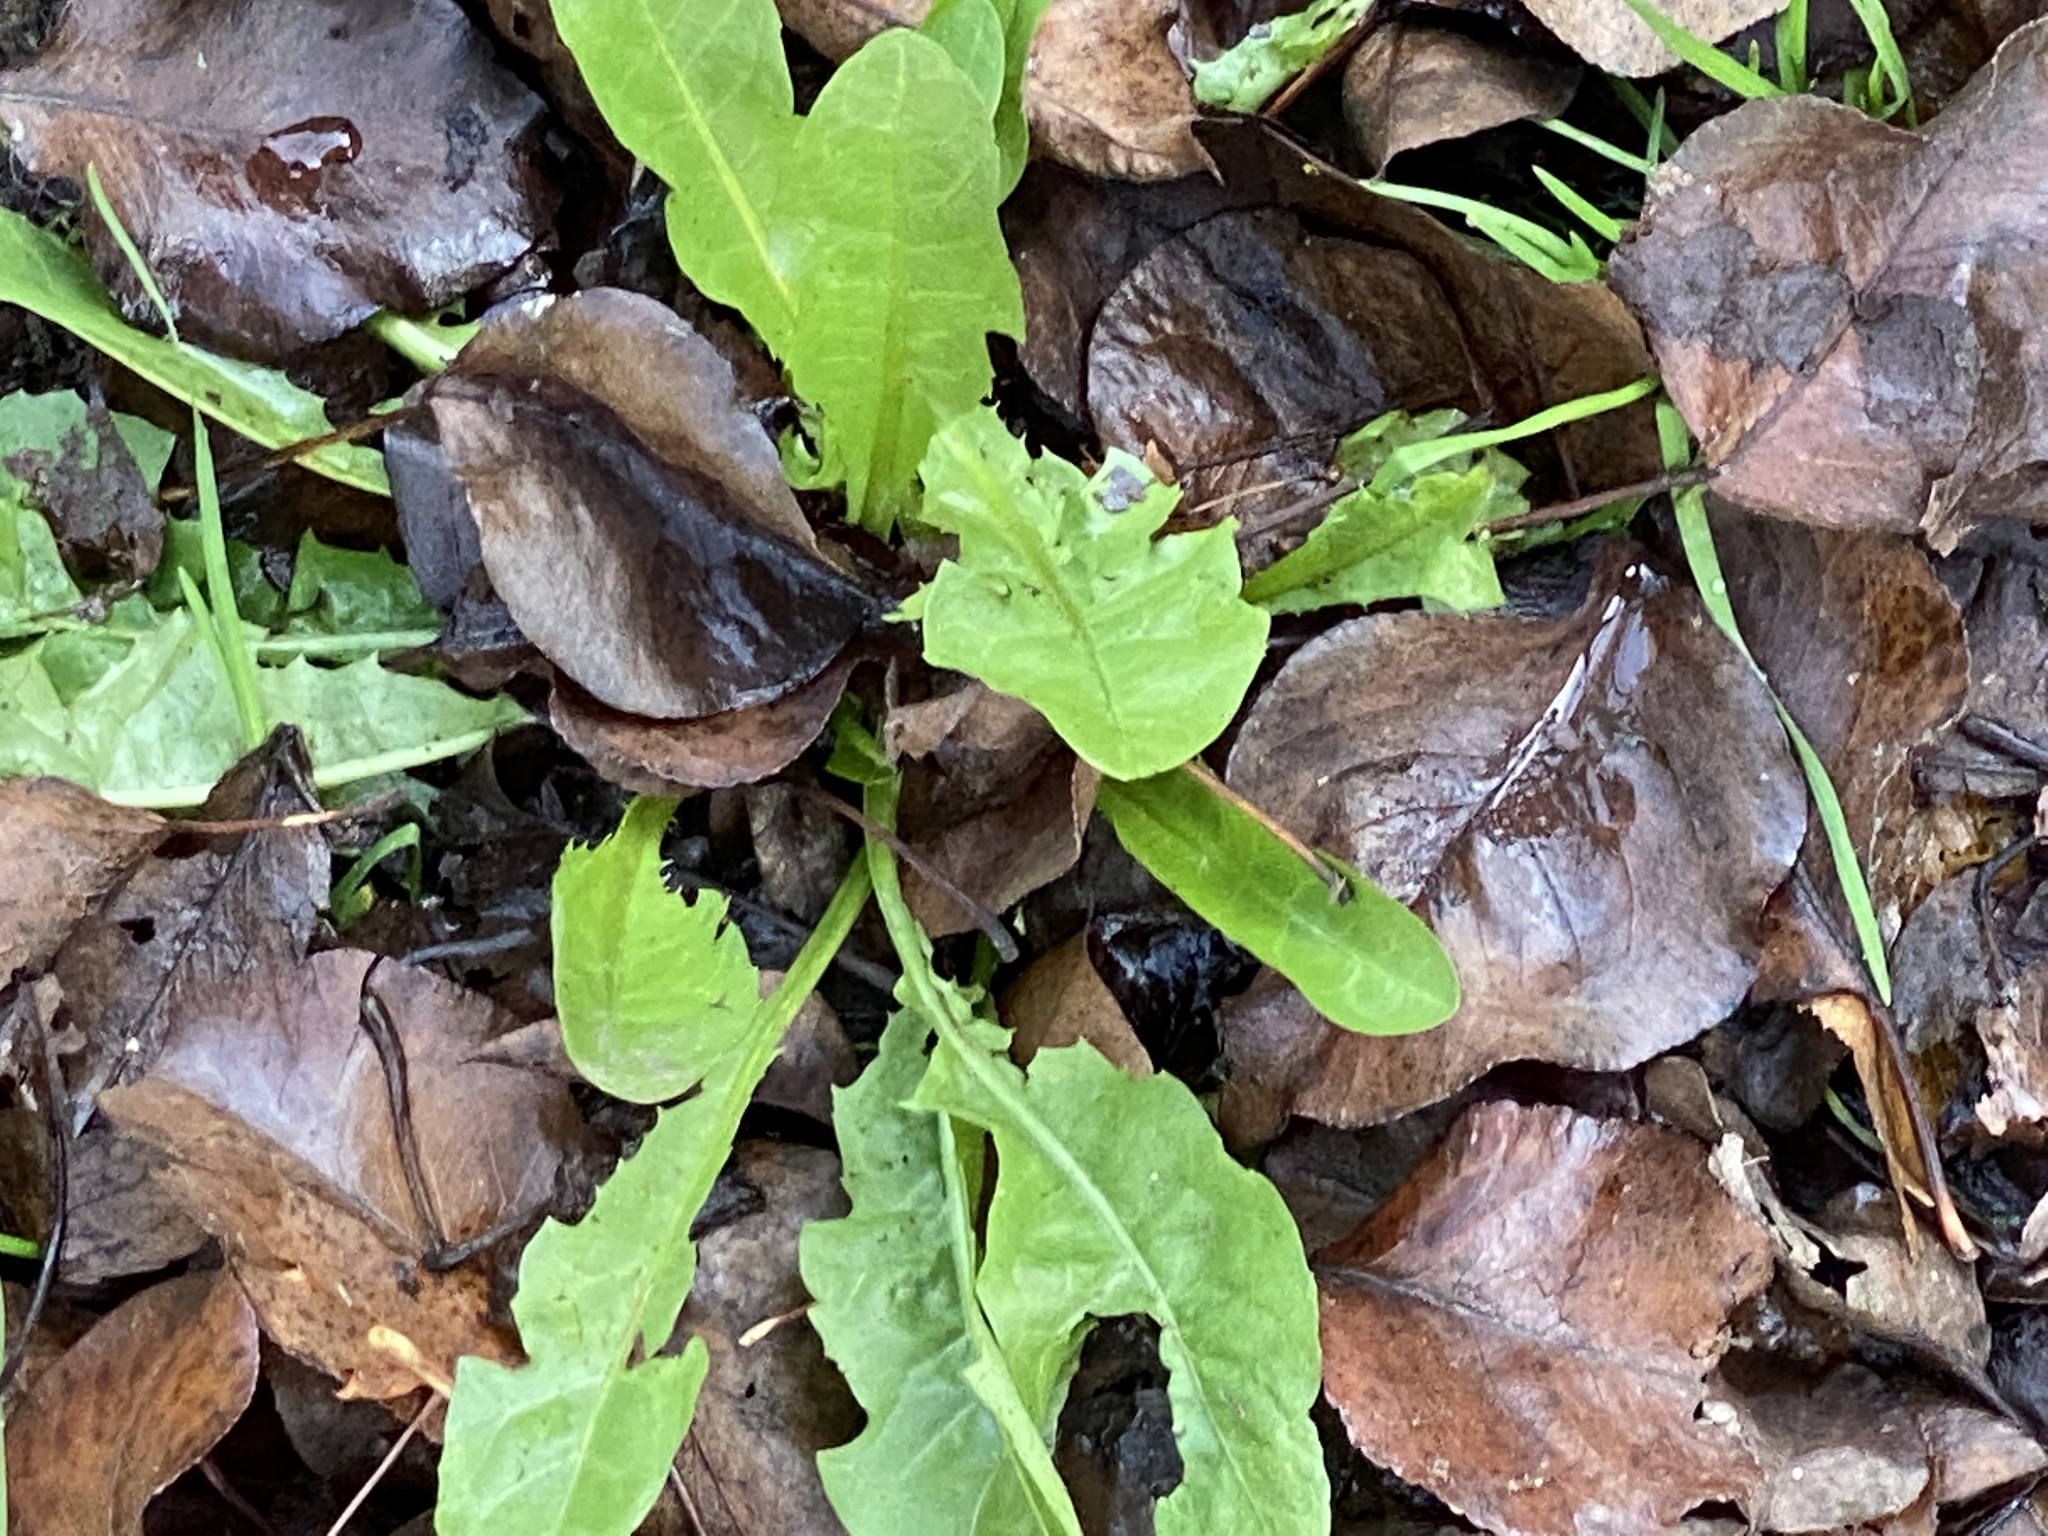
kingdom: Plantae
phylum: Tracheophyta
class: Magnoliopsida
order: Asterales
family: Asteraceae
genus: Taraxacum
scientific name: Taraxacum
